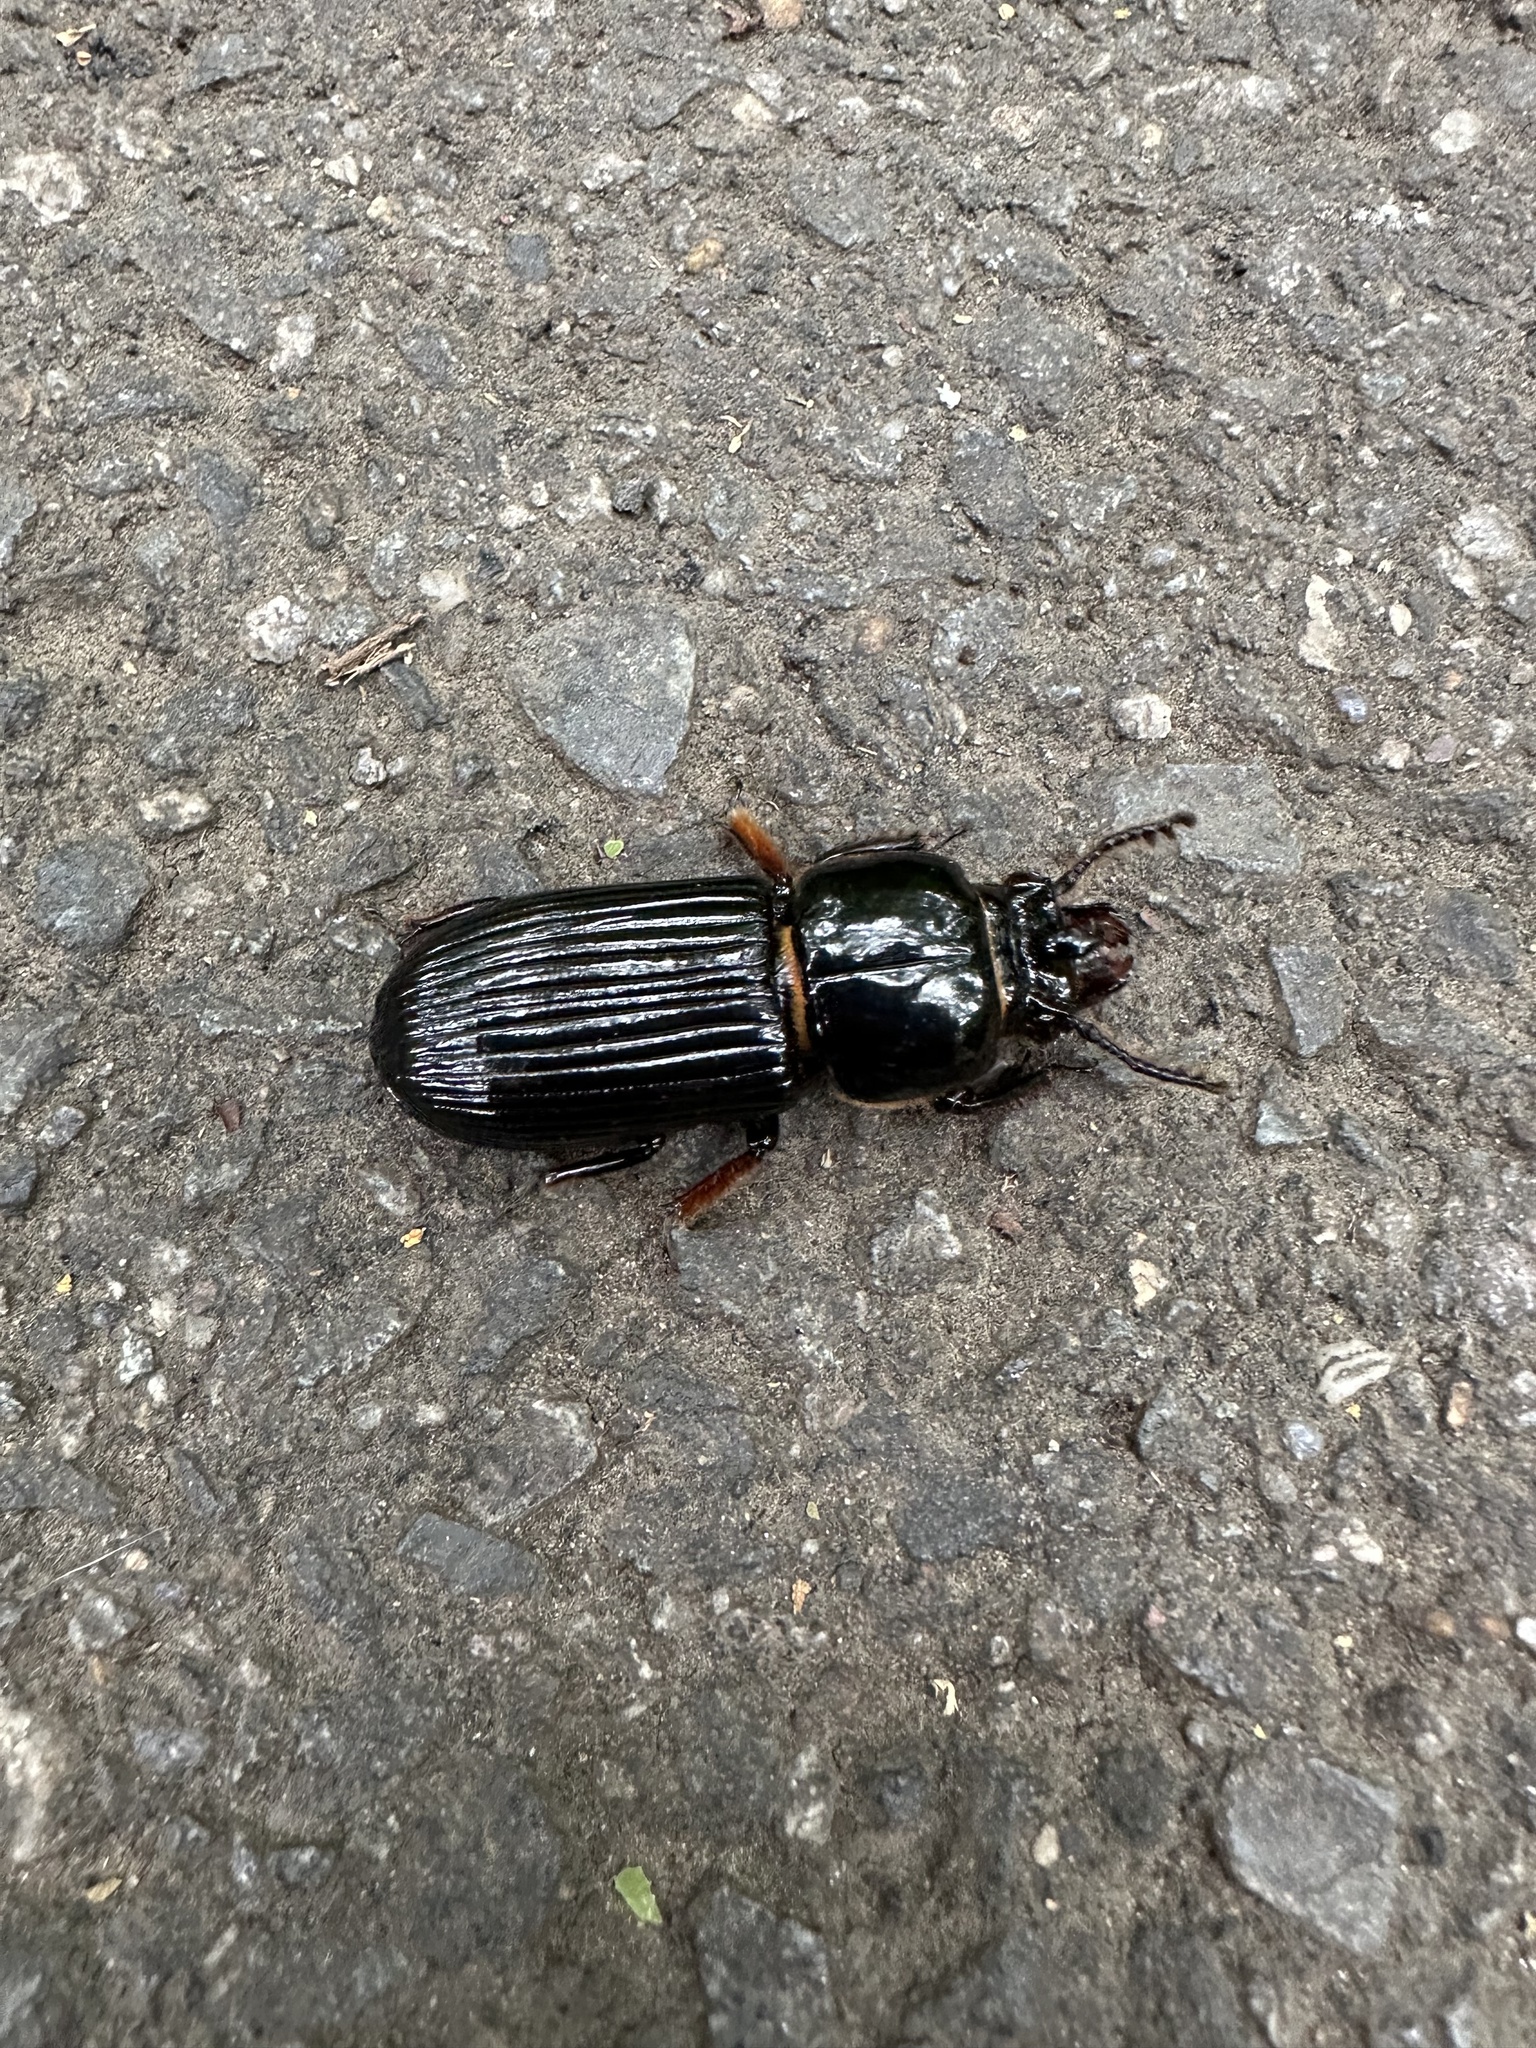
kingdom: Animalia
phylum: Arthropoda
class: Insecta
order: Coleoptera
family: Passalidae
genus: Odontotaenius
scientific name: Odontotaenius disjunctus
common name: Patent leather beetle
